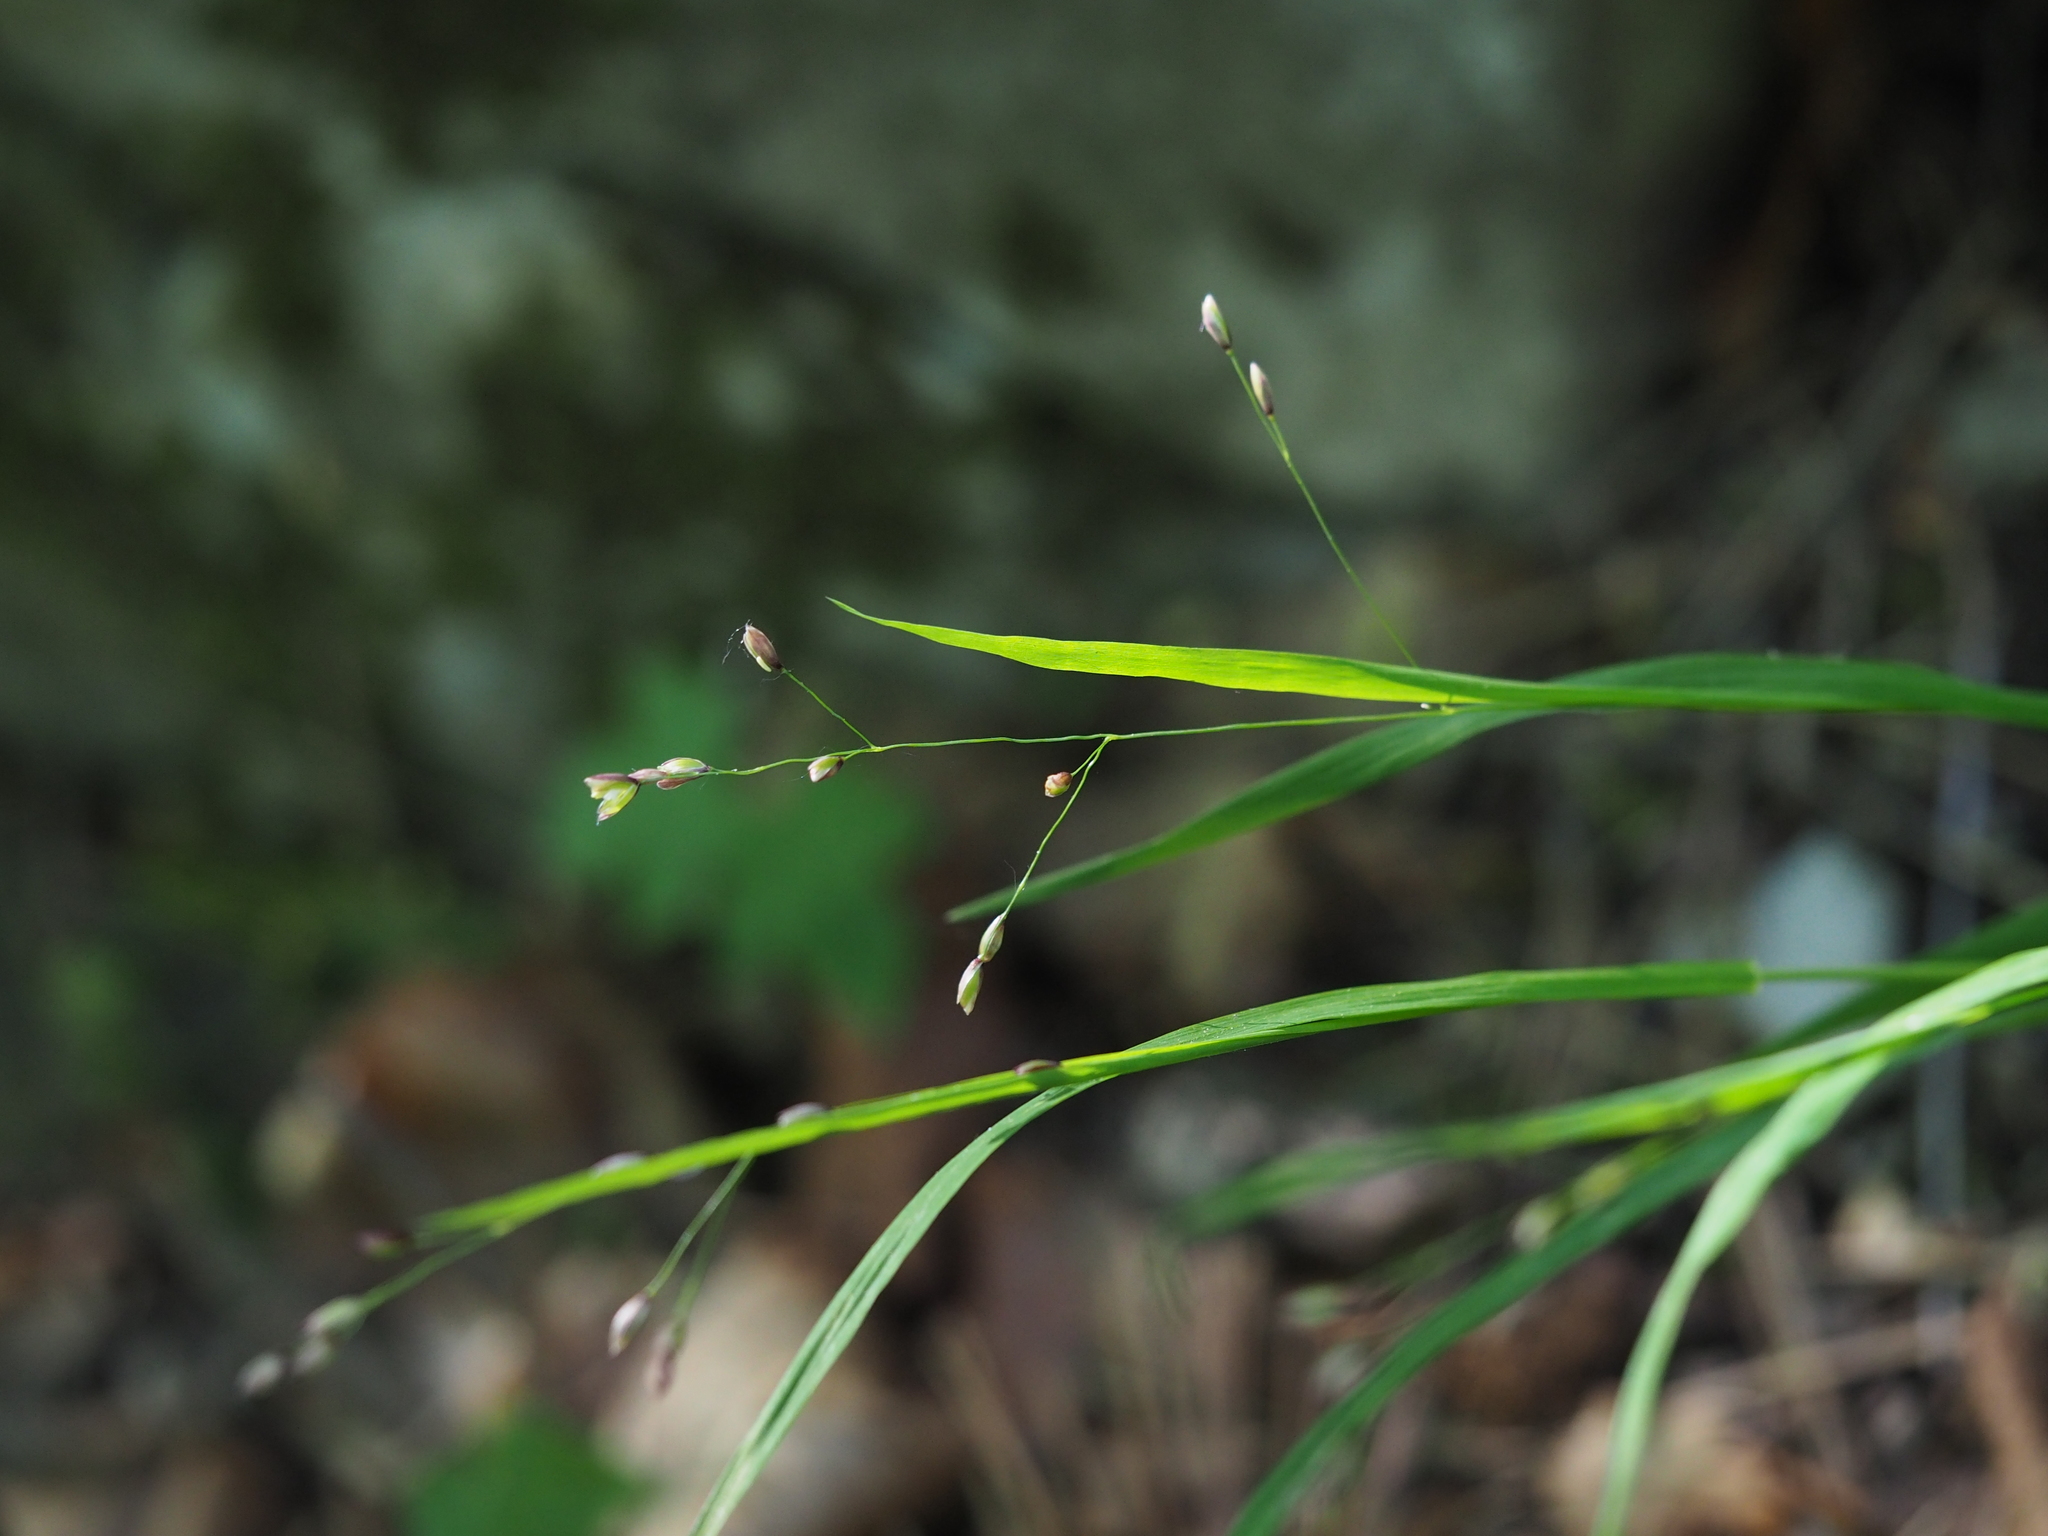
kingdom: Plantae
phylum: Tracheophyta
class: Liliopsida
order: Poales
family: Poaceae
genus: Melica
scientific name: Melica uniflora
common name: Wood melick
